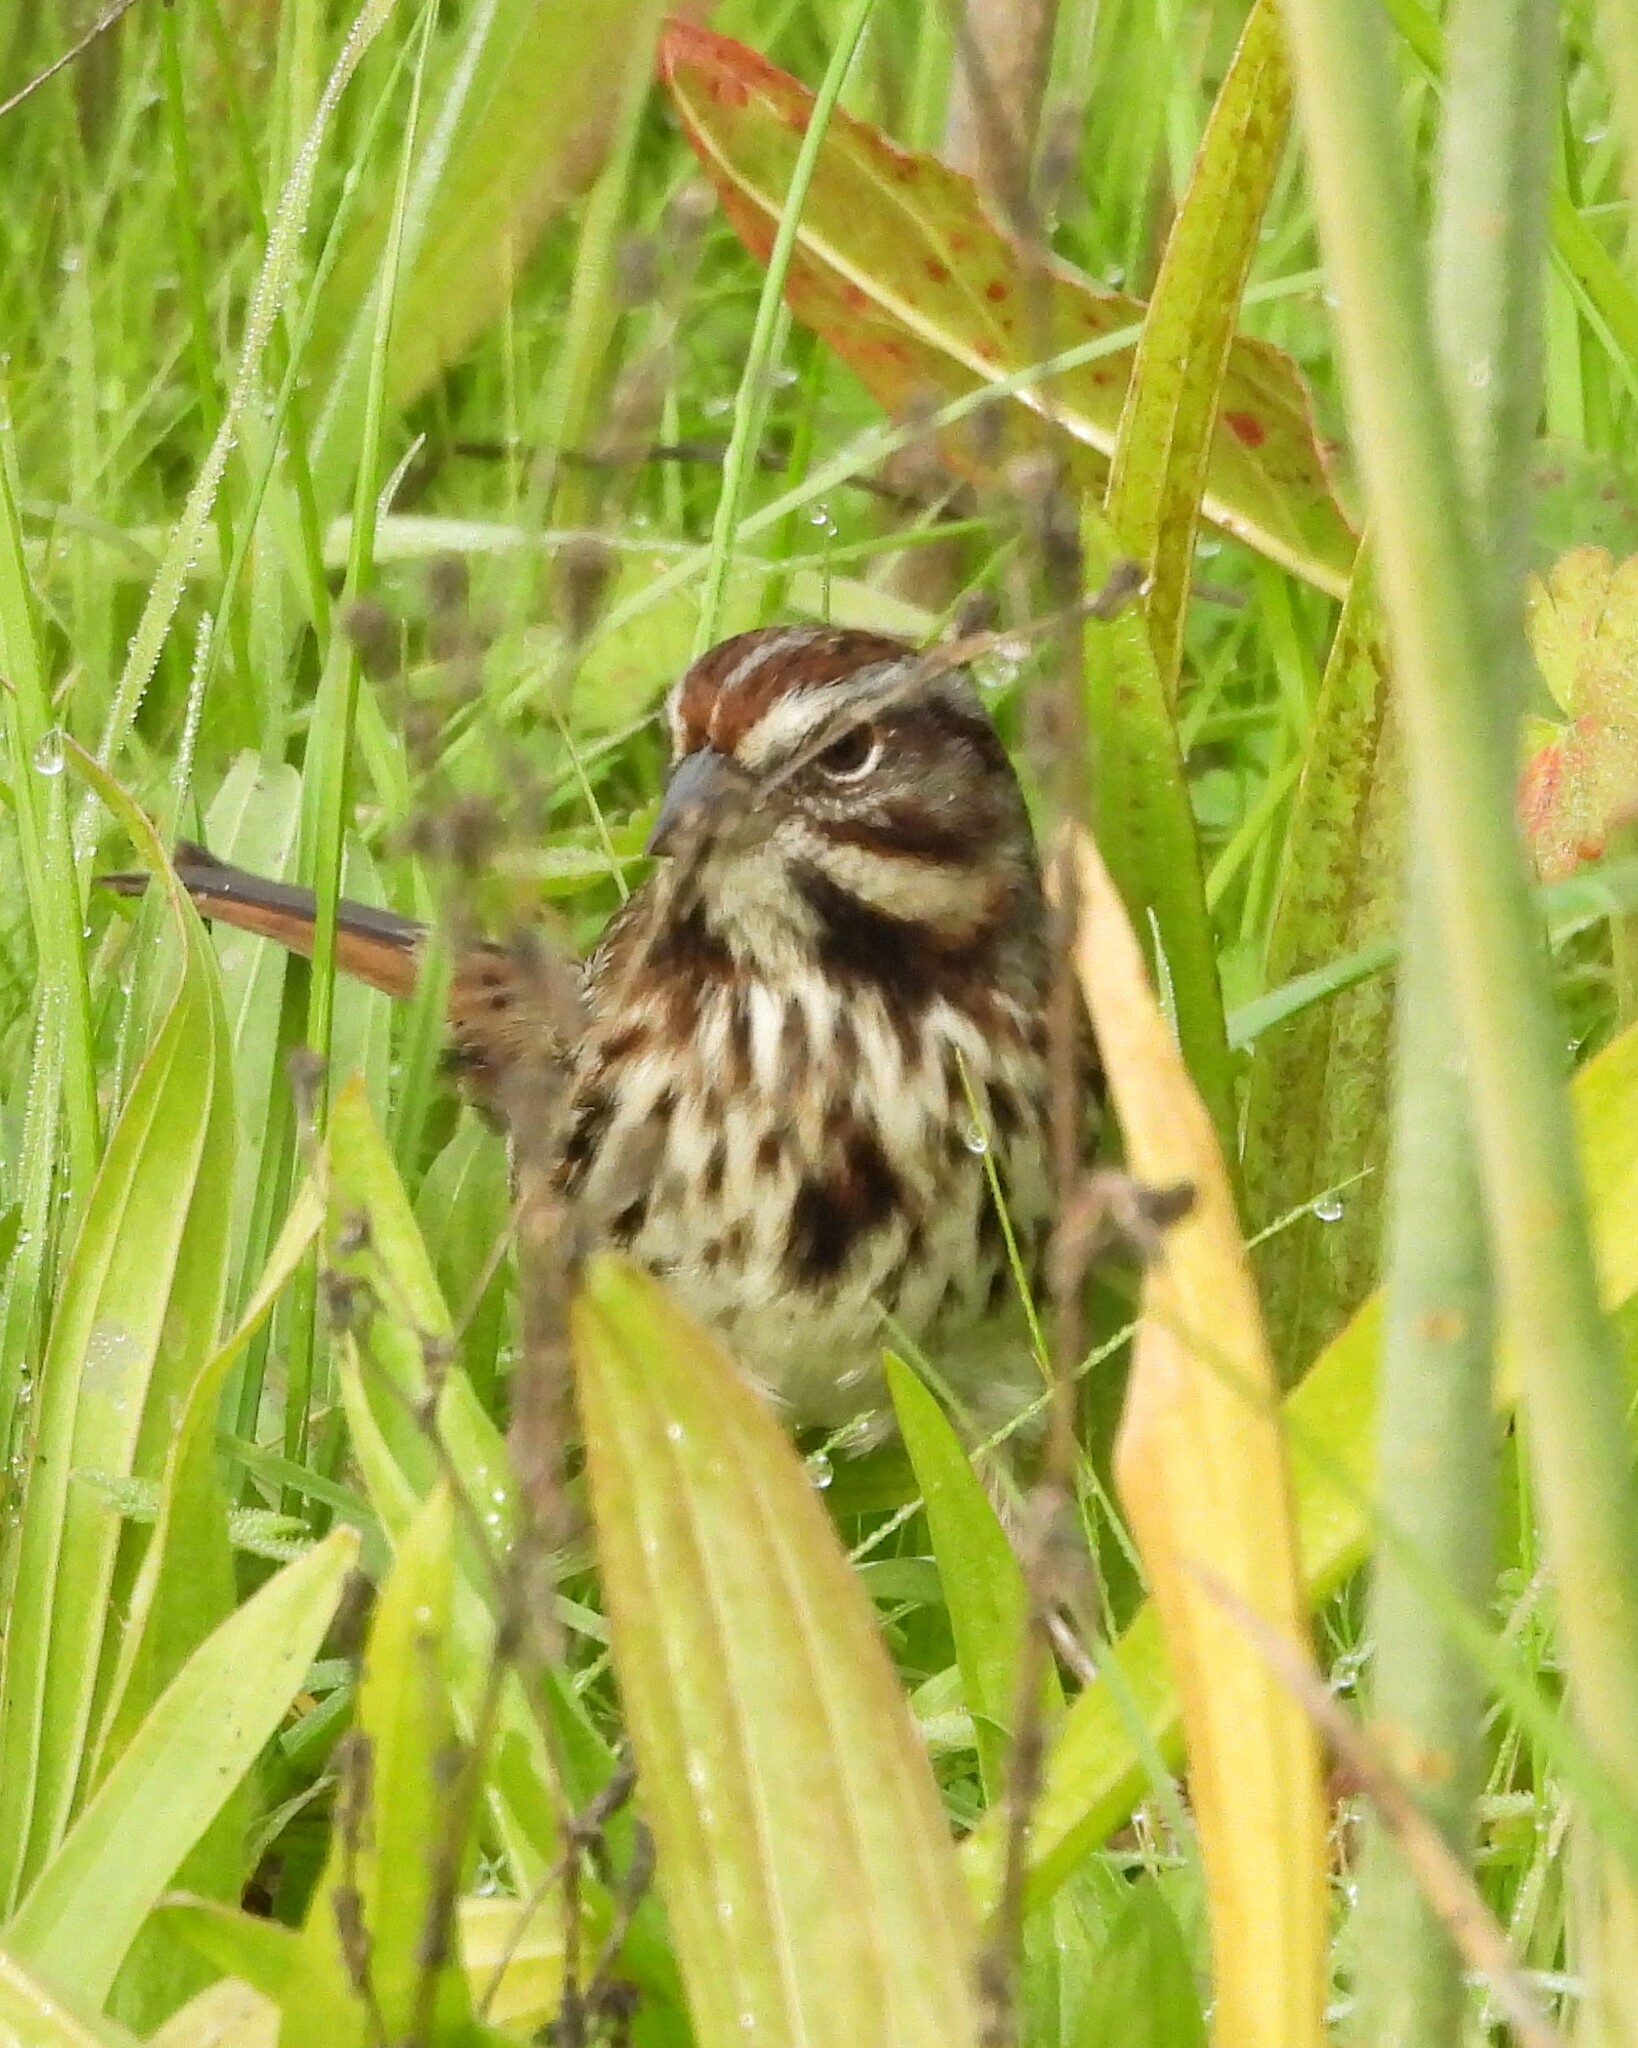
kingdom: Animalia
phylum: Chordata
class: Aves
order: Passeriformes
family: Passerellidae
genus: Melospiza
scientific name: Melospiza melodia
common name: Song sparrow
